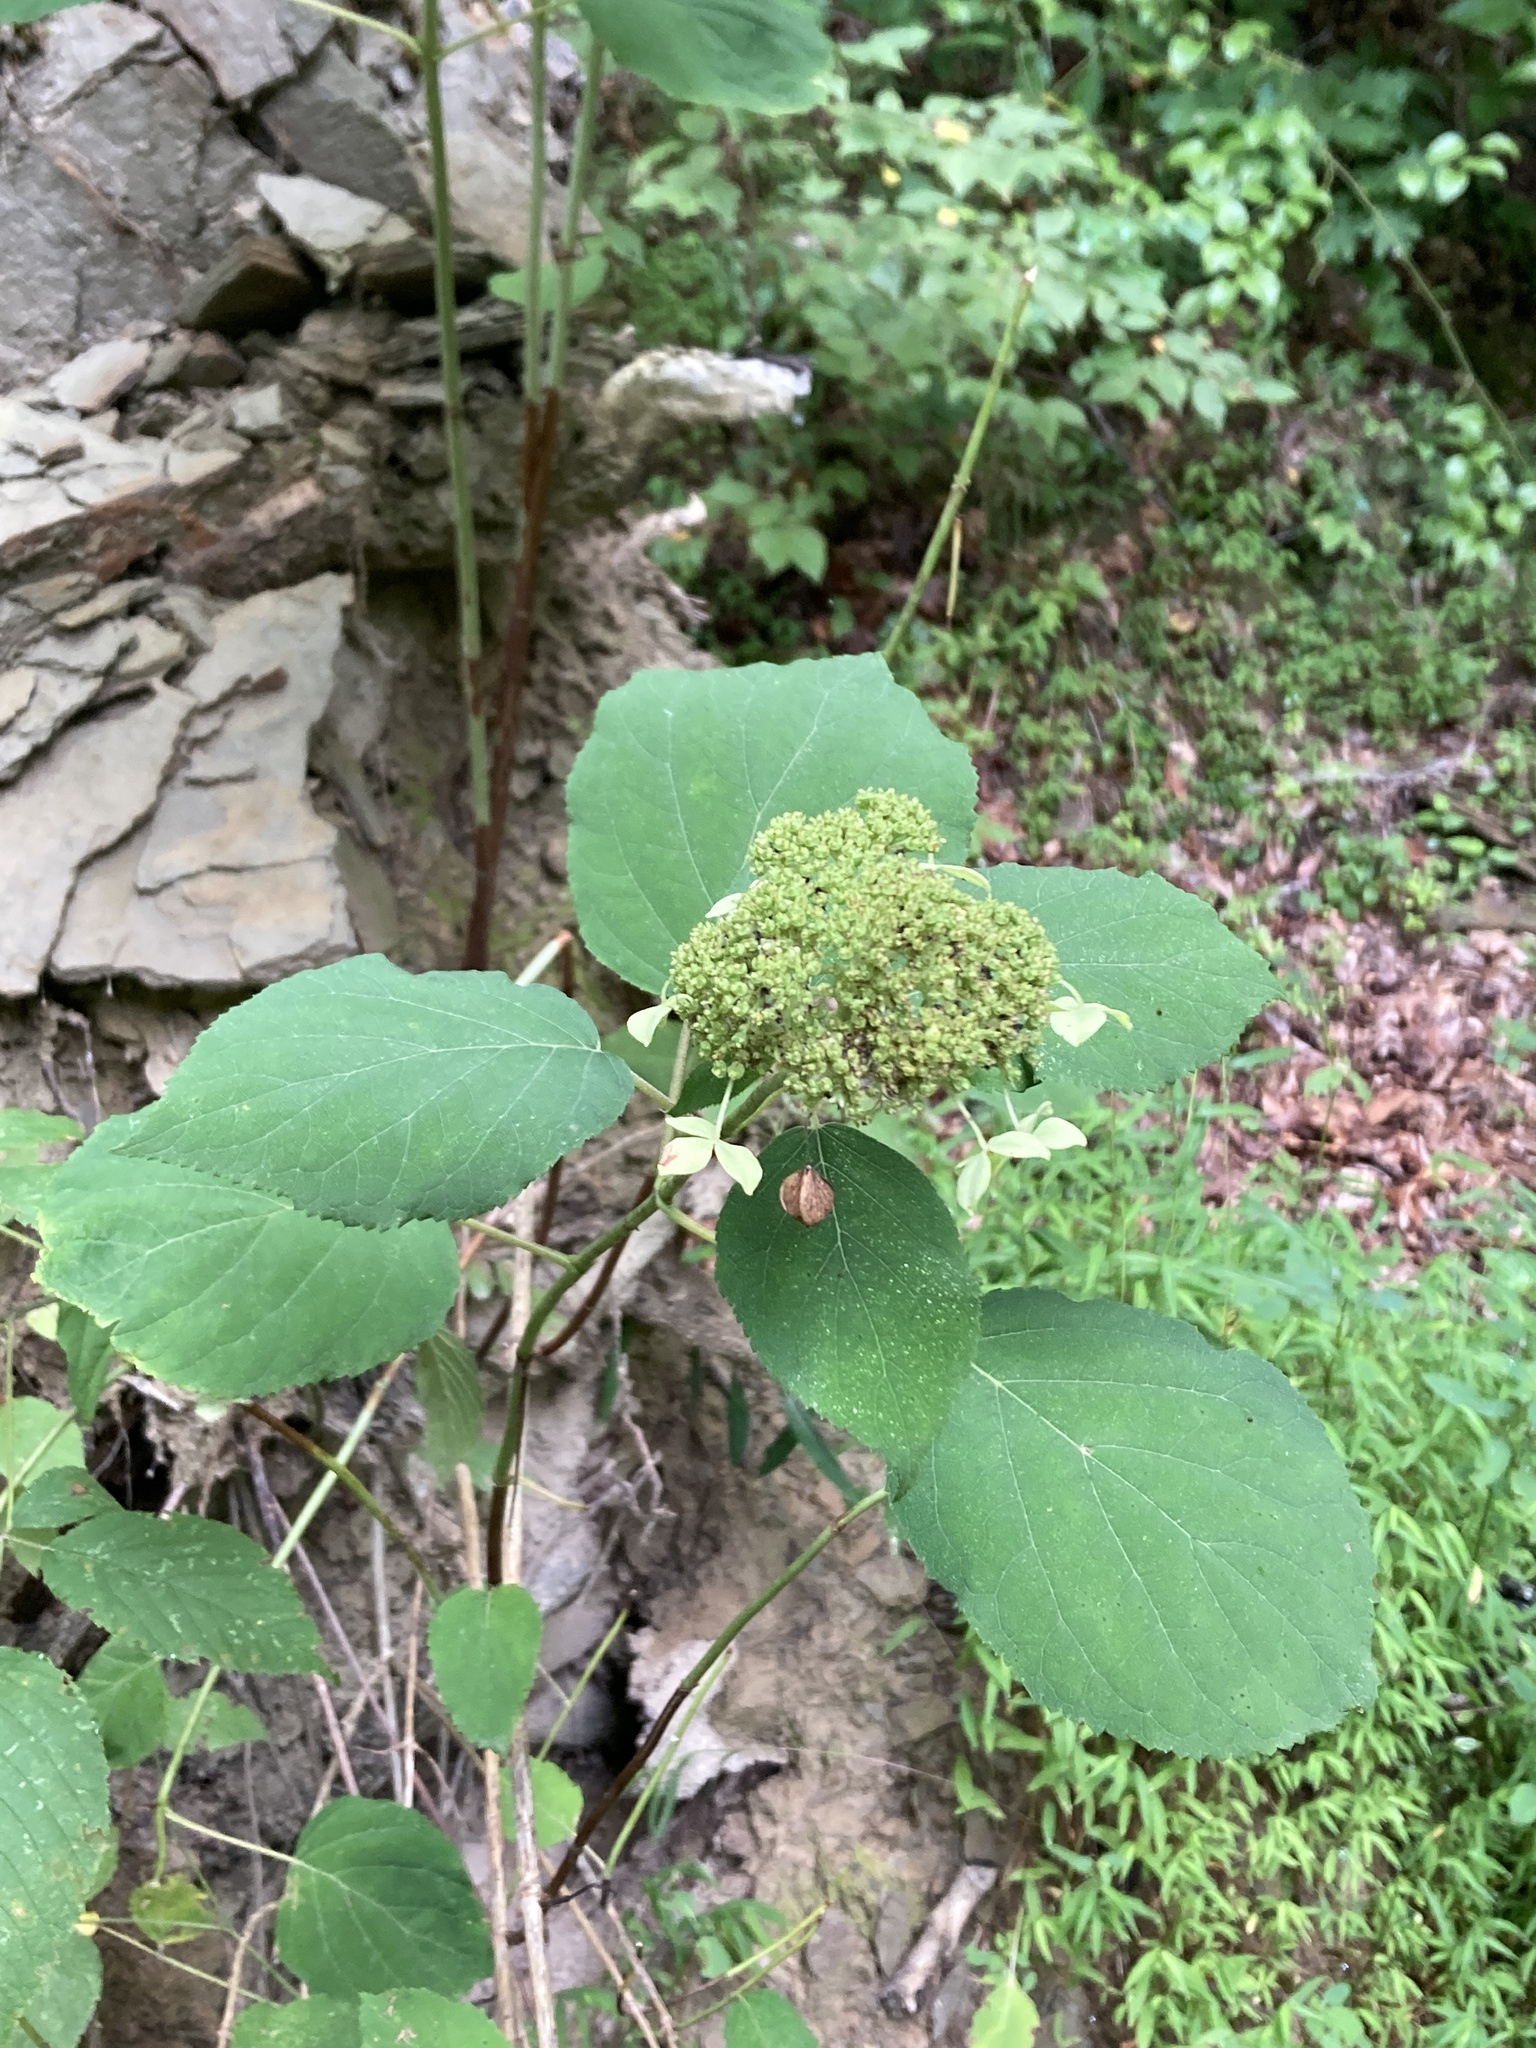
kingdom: Plantae
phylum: Tracheophyta
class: Magnoliopsida
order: Cornales
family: Hydrangeaceae
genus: Hydrangea
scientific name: Hydrangea arborescens
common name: Sevenbark
